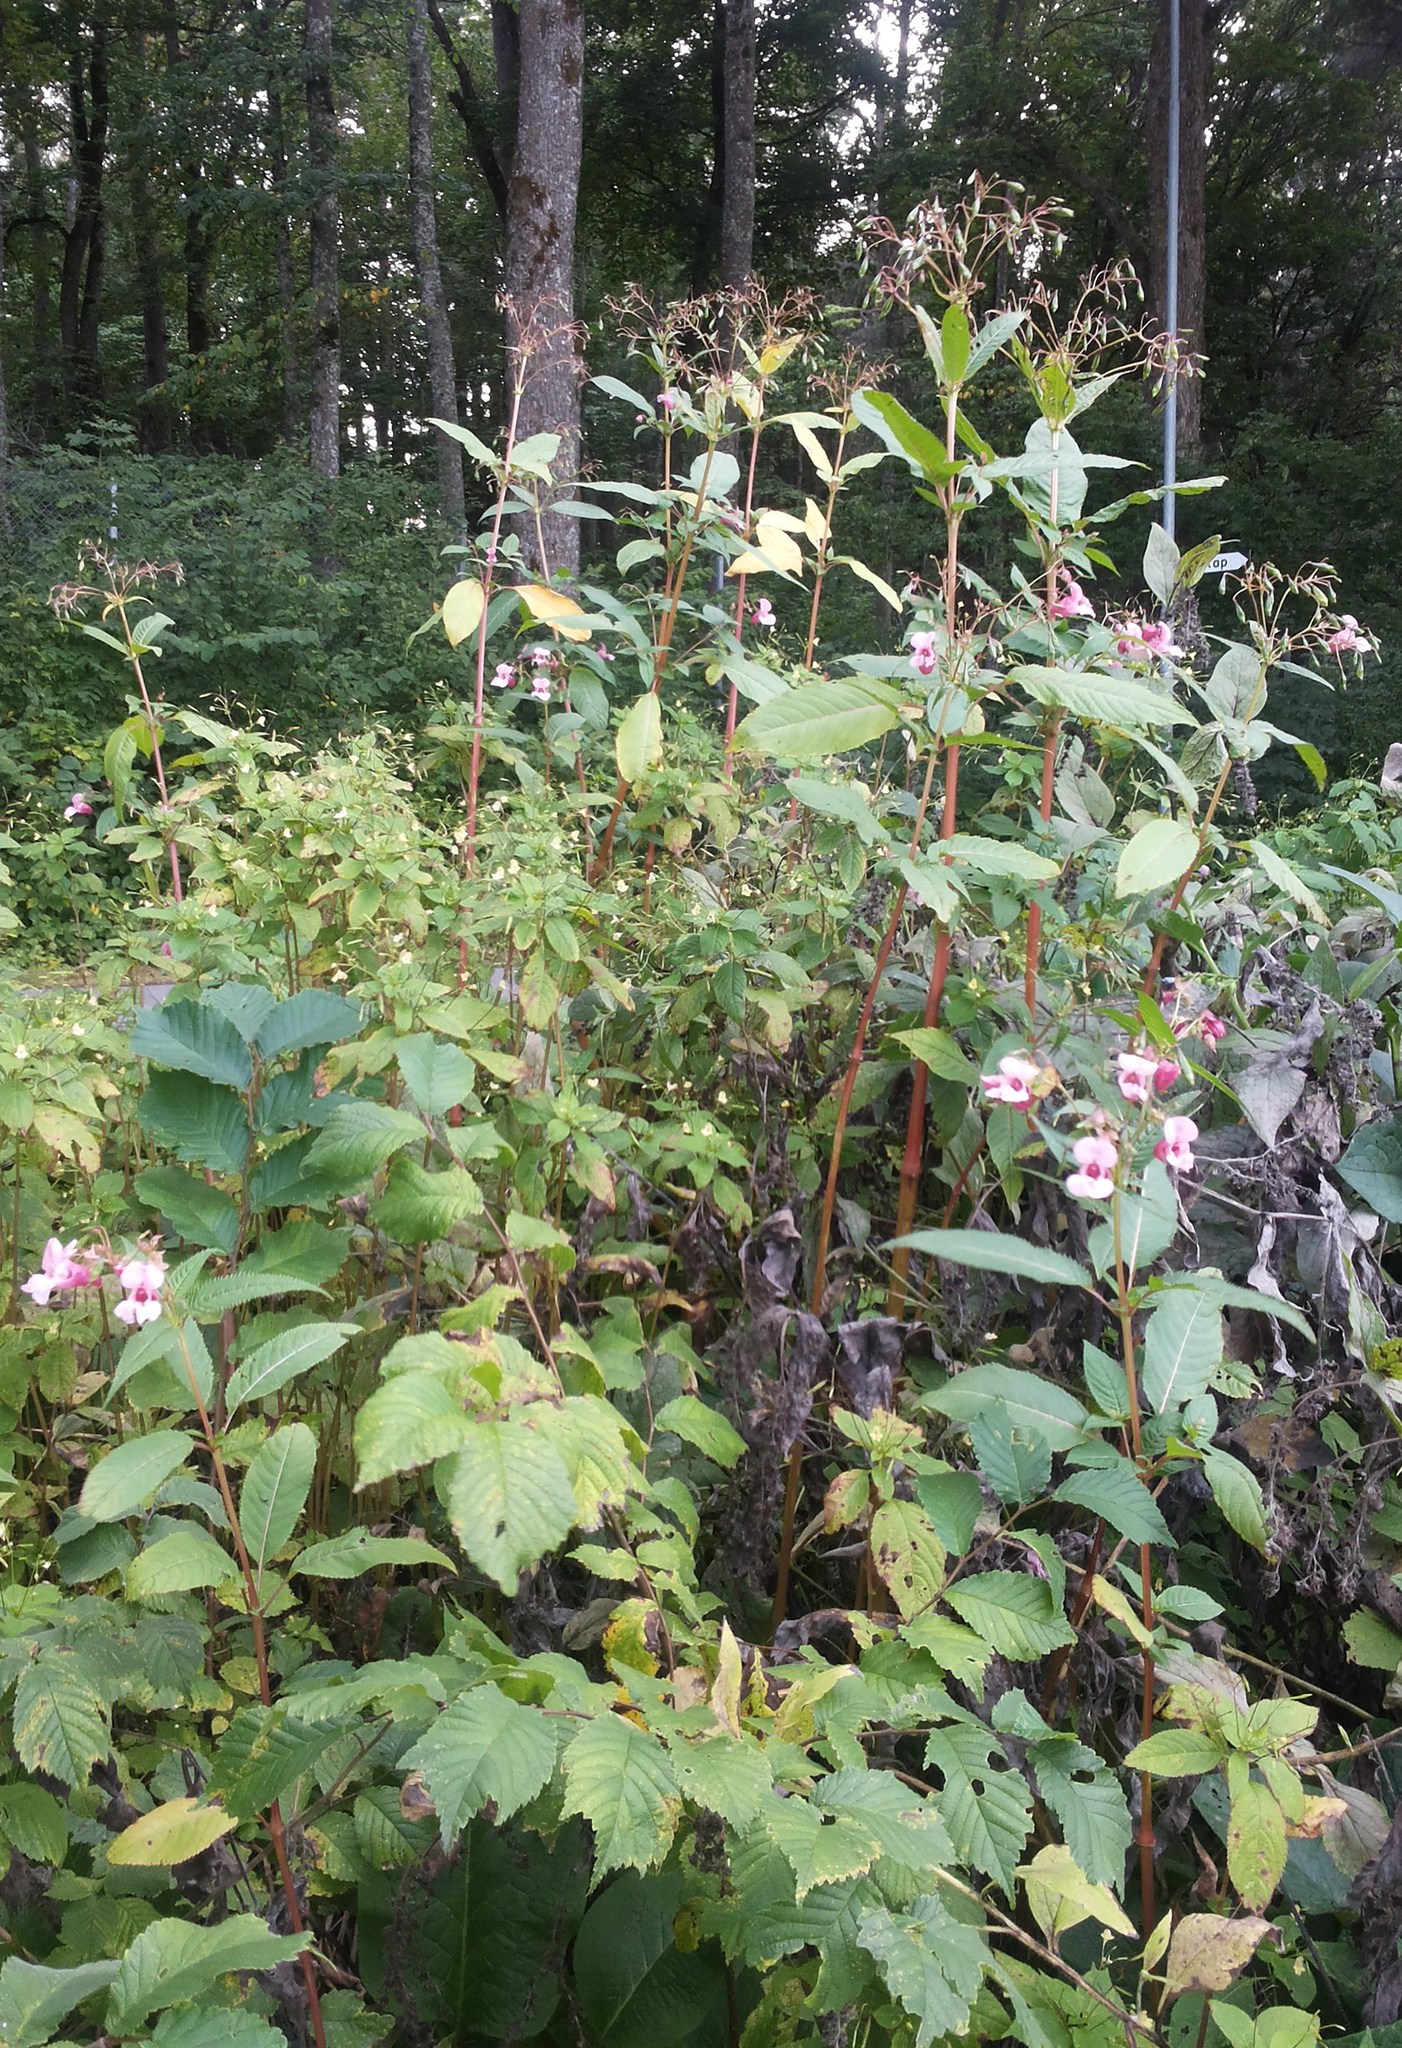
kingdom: Plantae
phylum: Tracheophyta
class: Magnoliopsida
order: Ericales
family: Balsaminaceae
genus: Impatiens
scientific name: Impatiens glandulifera
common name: Himalayan balsam
